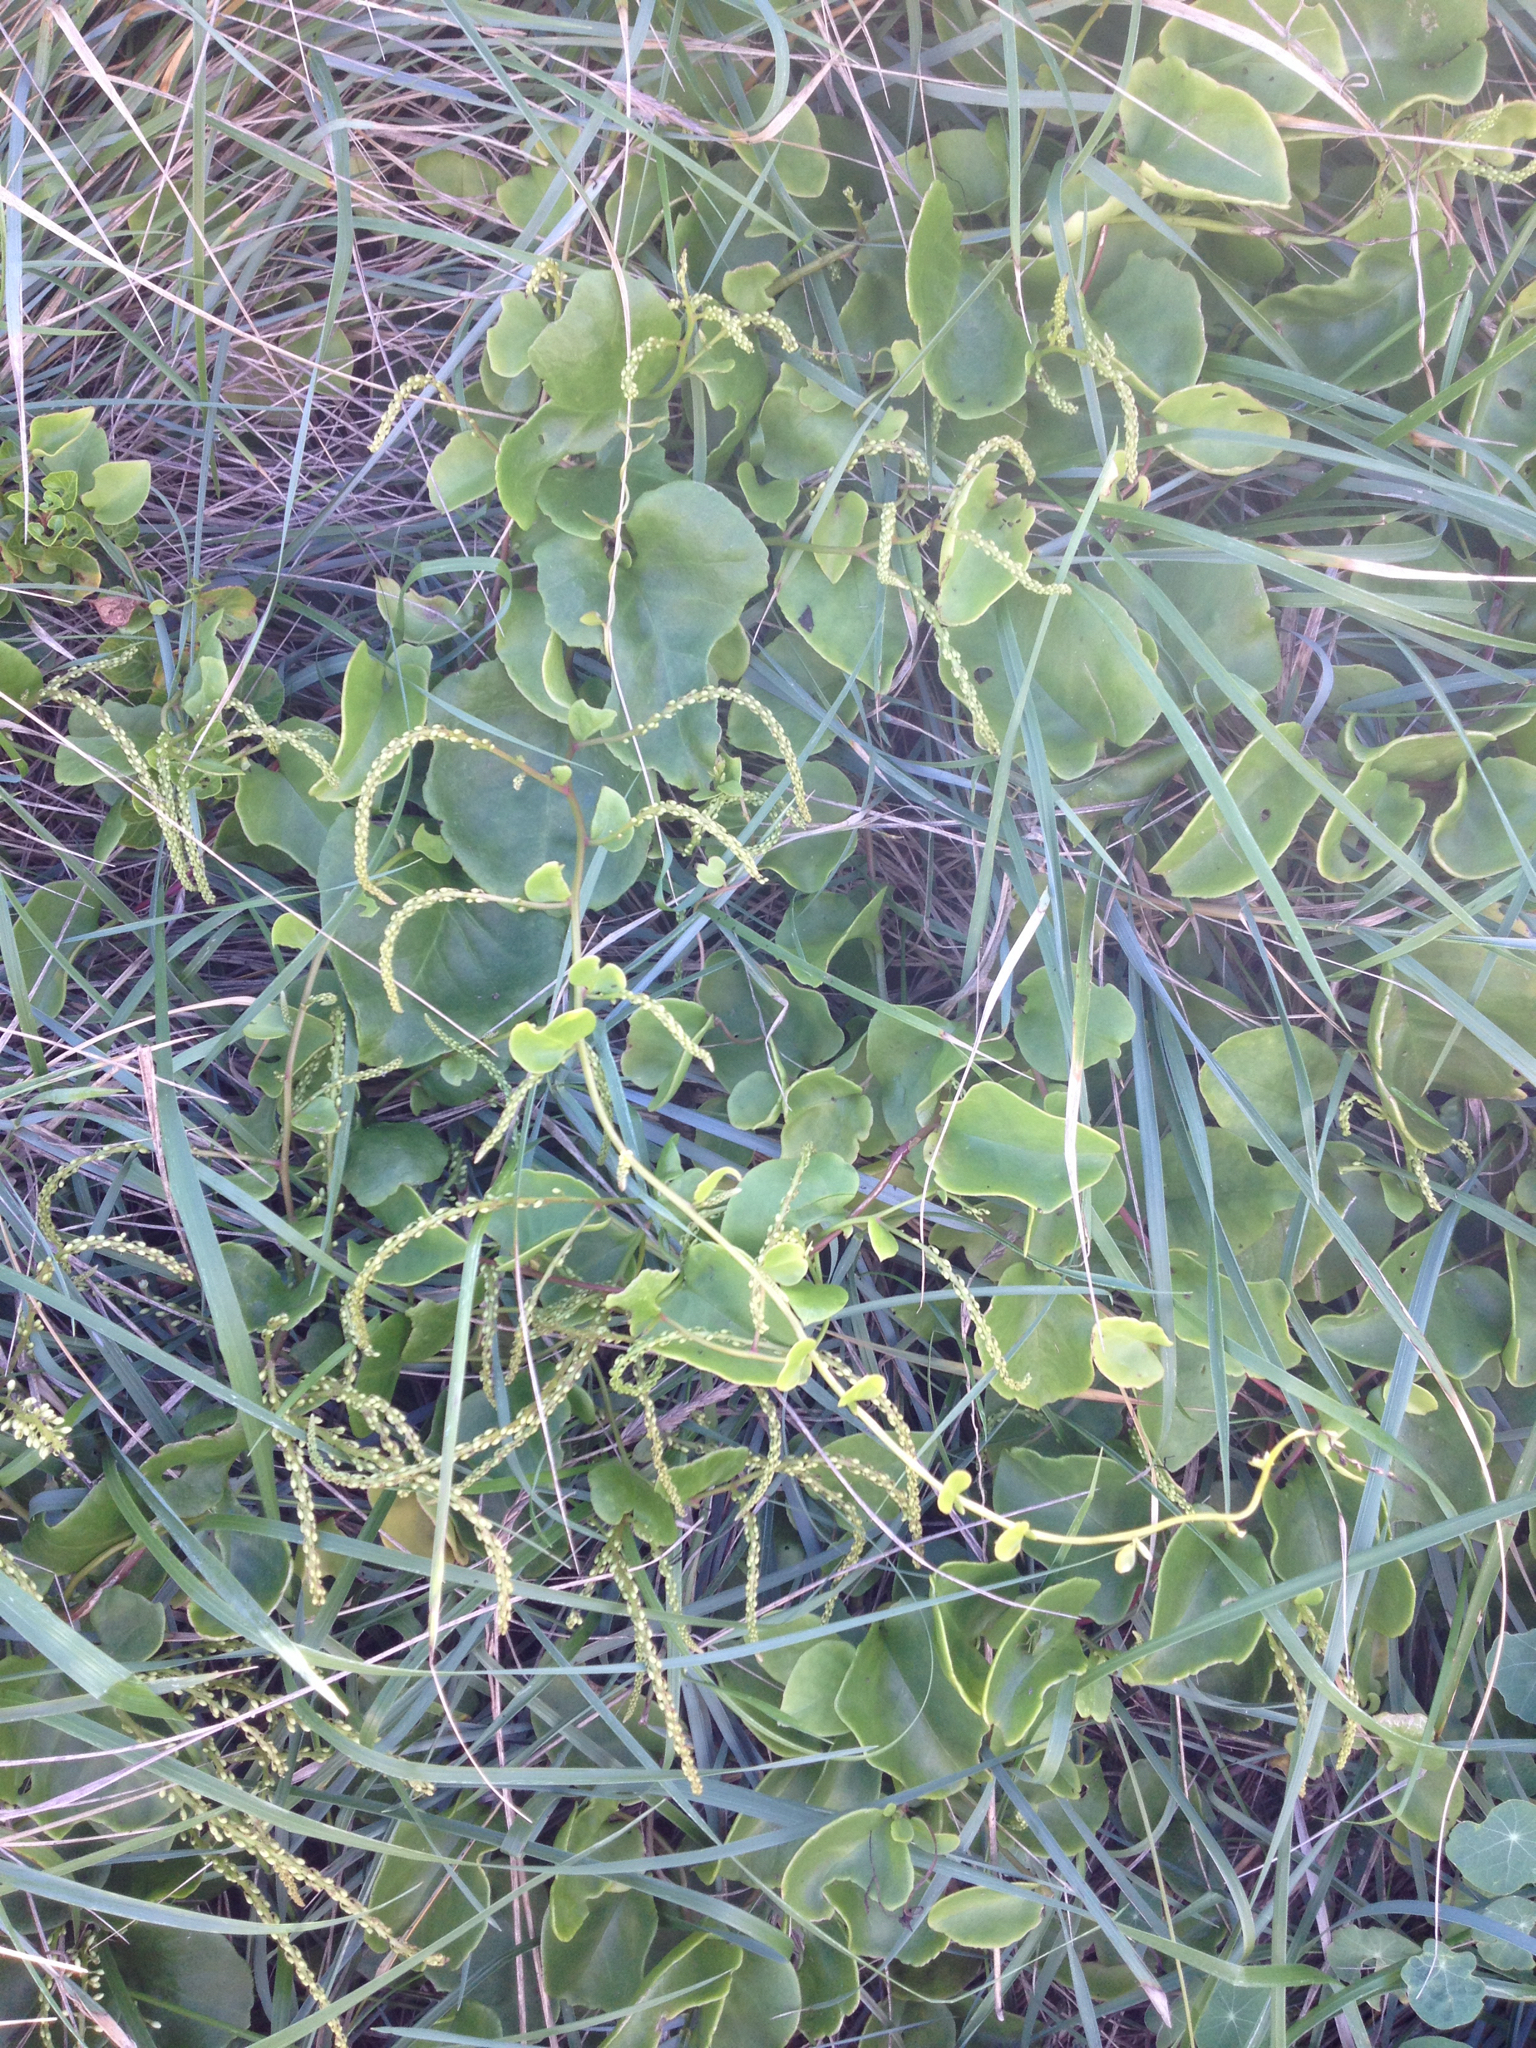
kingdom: Plantae
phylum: Tracheophyta
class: Magnoliopsida
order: Caryophyllales
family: Basellaceae
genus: Anredera
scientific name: Anredera cordifolia
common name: Heartleaf madeiravine
